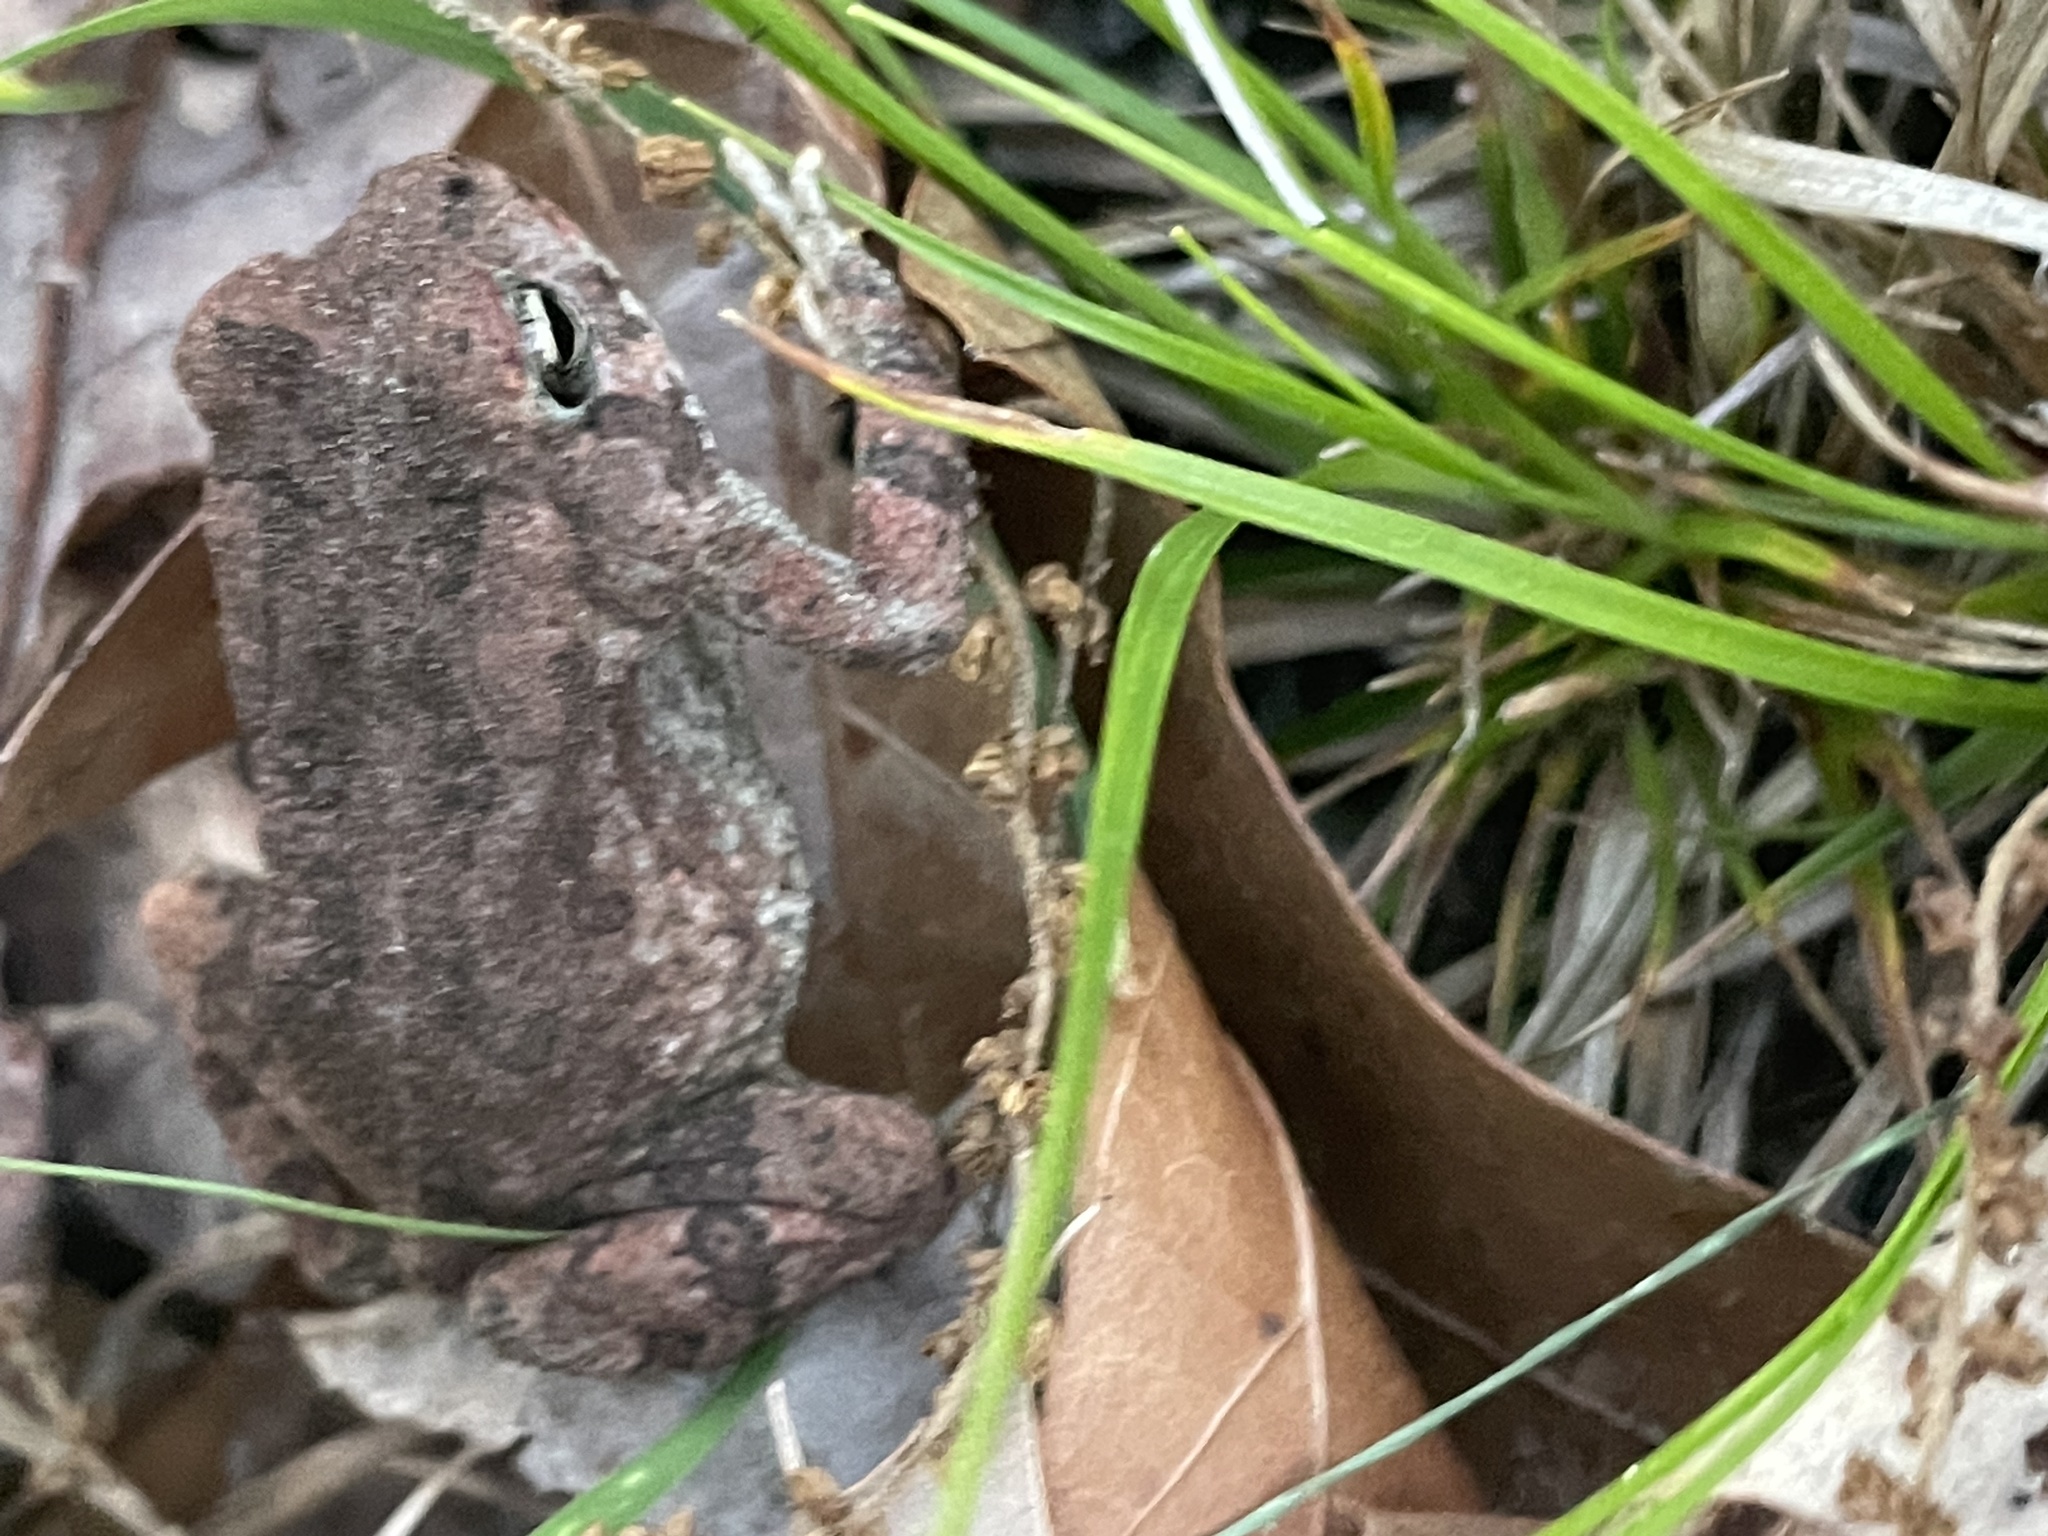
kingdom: Animalia
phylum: Chordata
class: Amphibia
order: Anura
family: Bufonidae
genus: Anaxyrus
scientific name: Anaxyrus fowleri
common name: Fowler's toad
